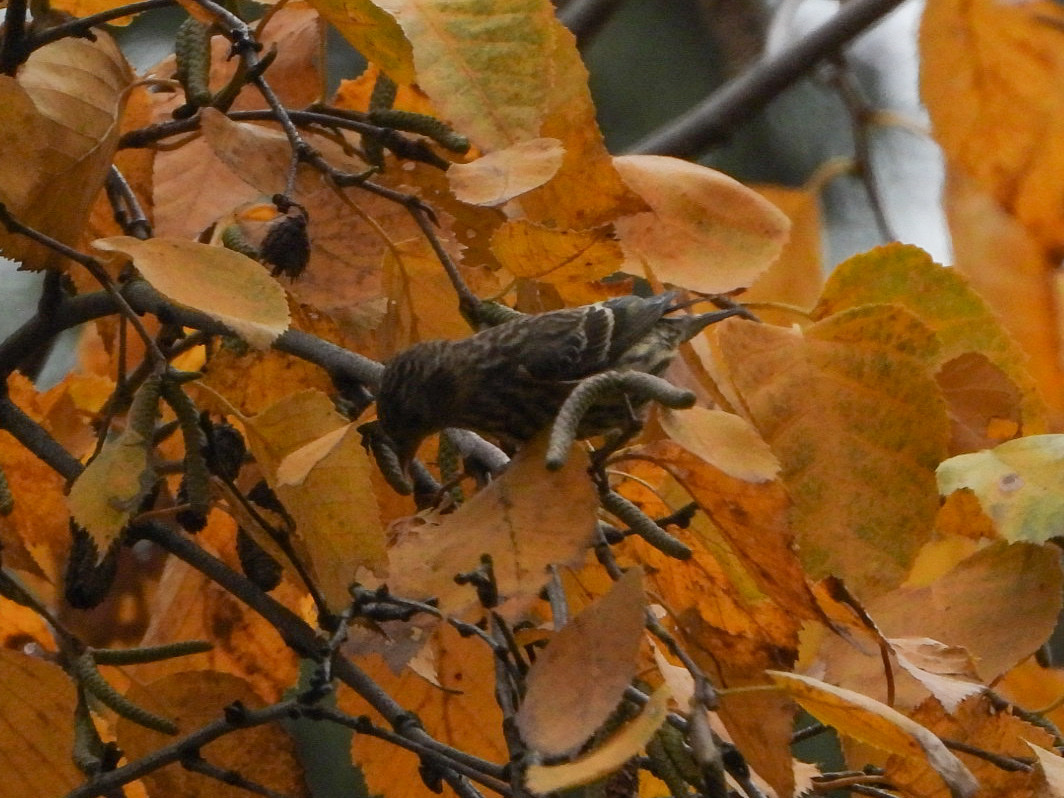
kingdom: Animalia
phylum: Chordata
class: Aves
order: Passeriformes
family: Fringillidae
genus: Spinus
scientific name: Spinus pinus
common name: Pine siskin
